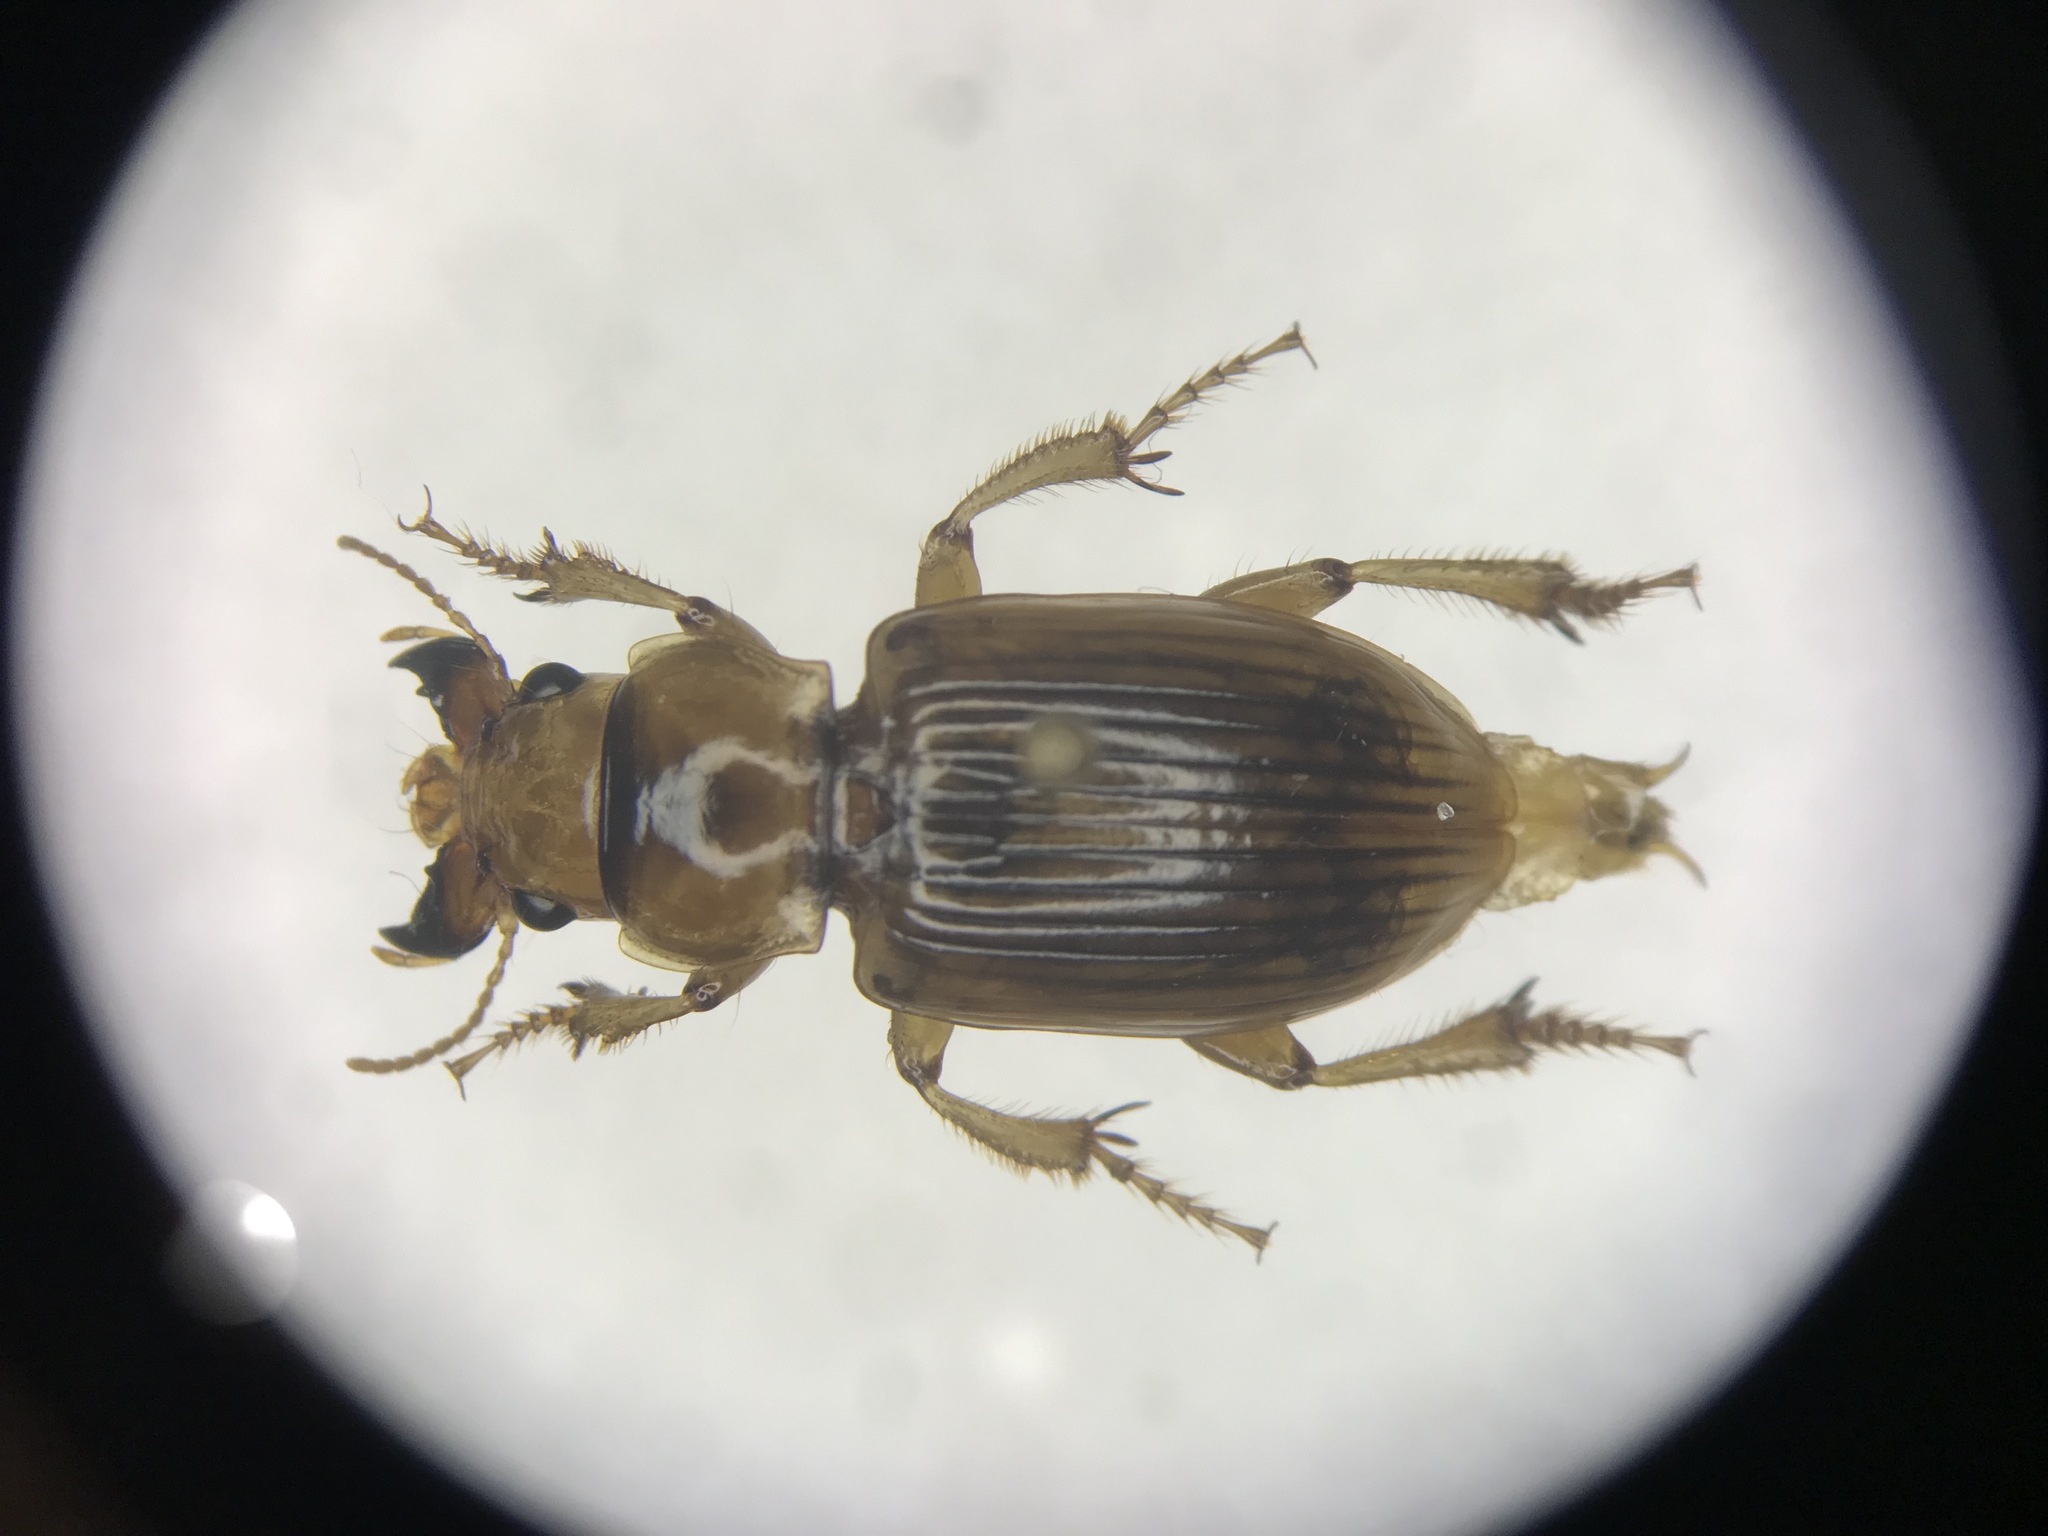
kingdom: Animalia
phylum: Arthropoda
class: Insecta
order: Coleoptera
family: Carabidae
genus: Geopinus
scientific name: Geopinus incrassatus
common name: Homely geopinus
